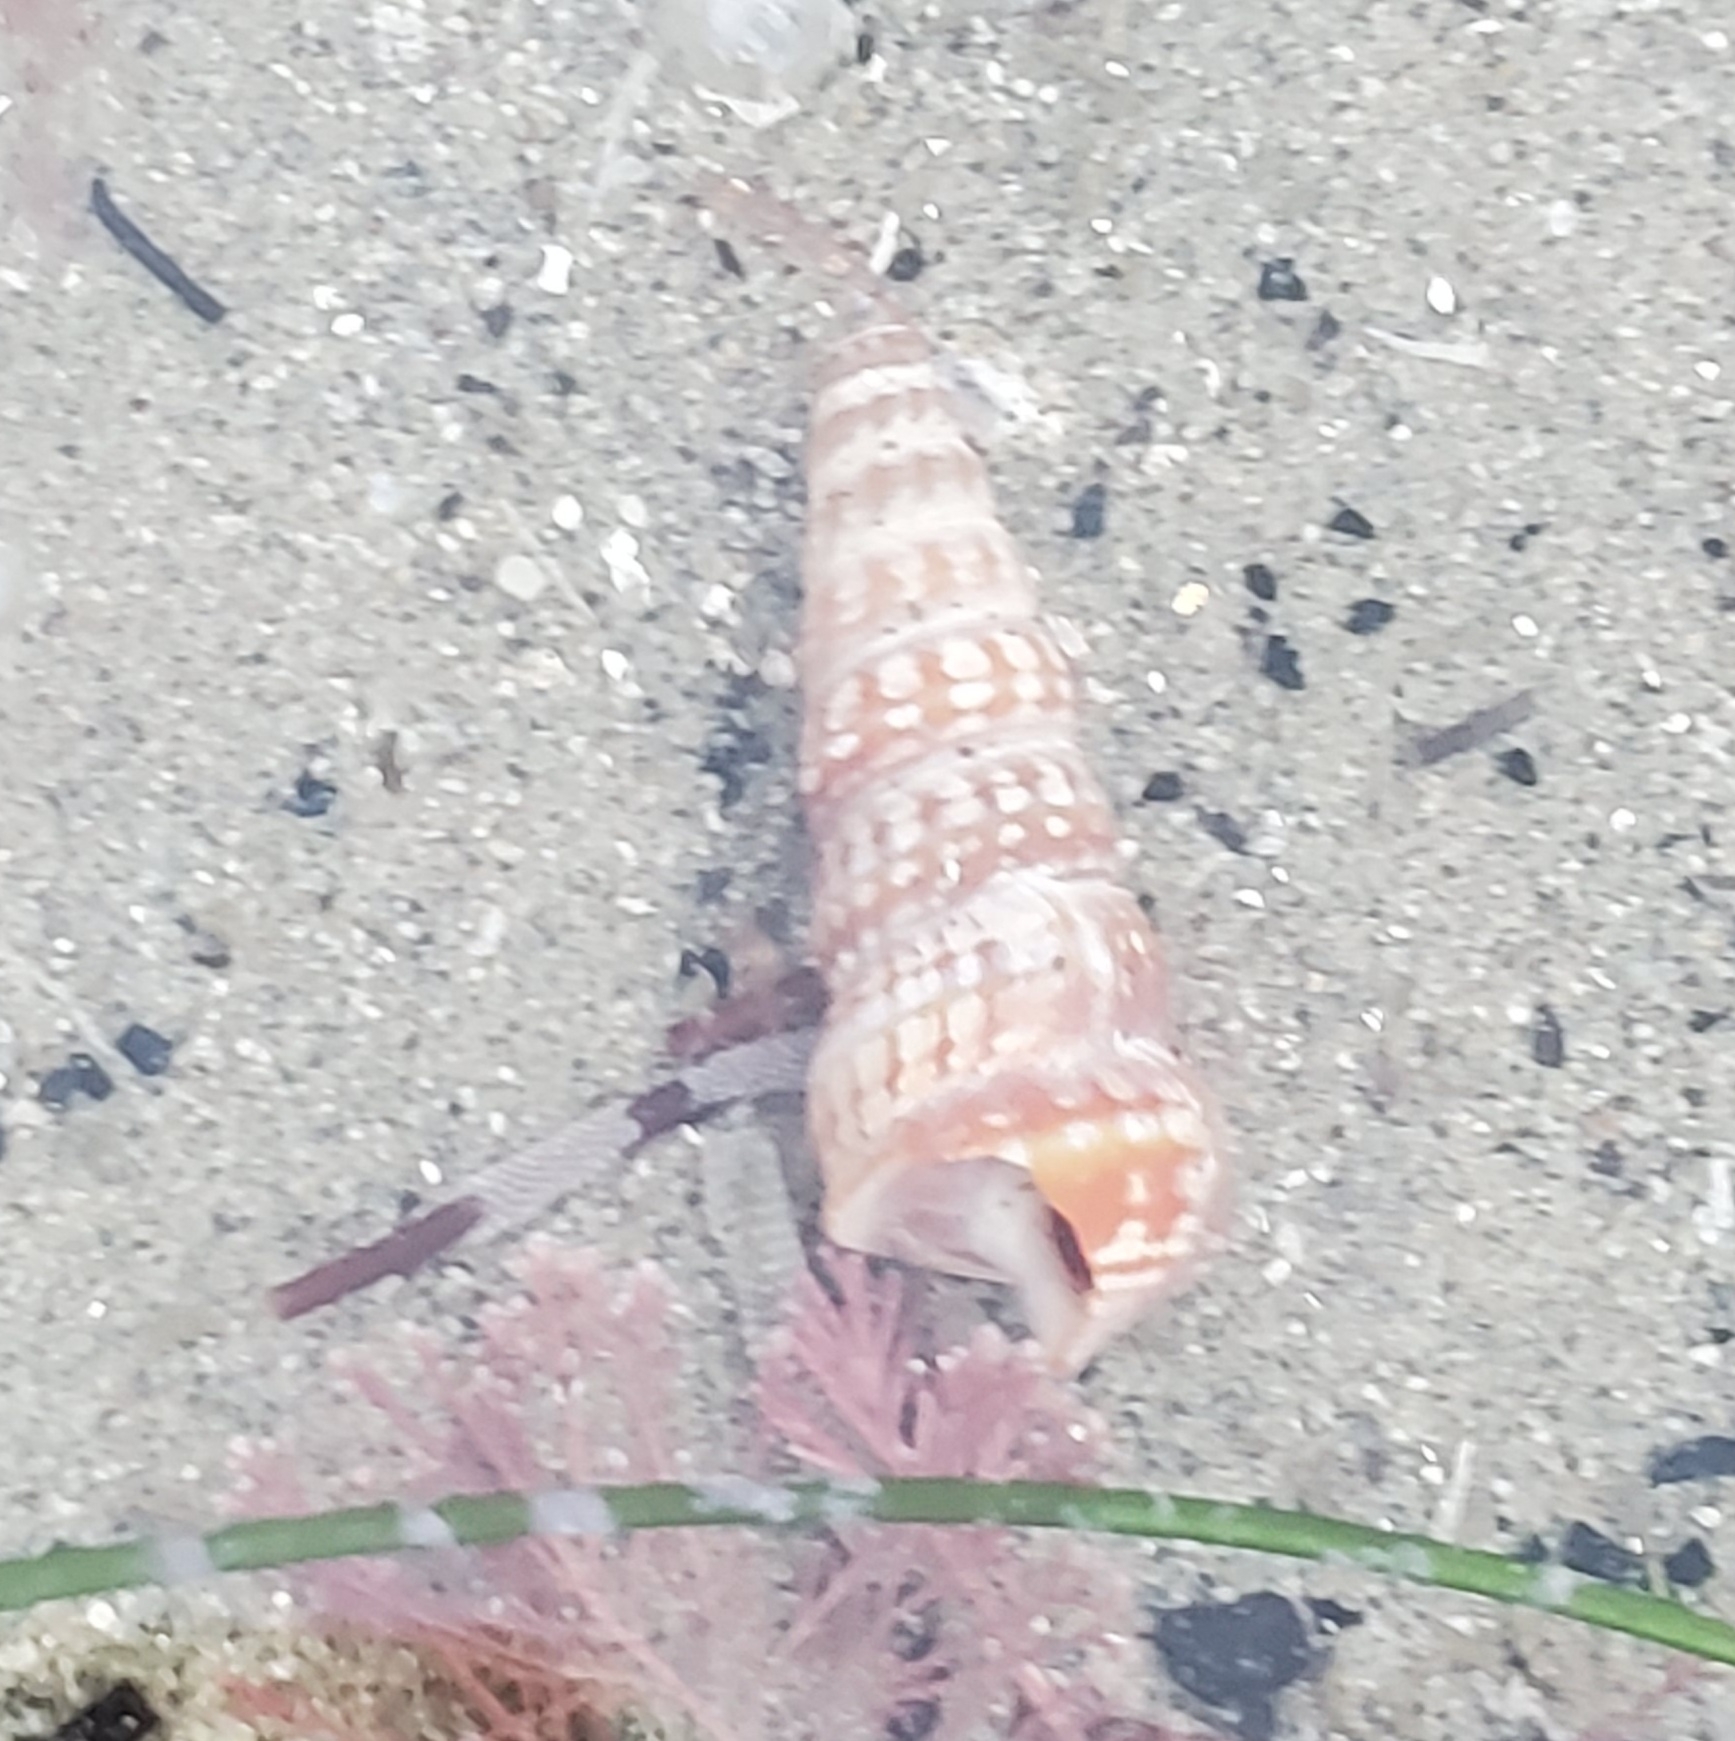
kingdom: Animalia
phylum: Mollusca
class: Gastropoda
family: Potamididae
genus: Cerithideopsis
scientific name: Cerithideopsis californica
